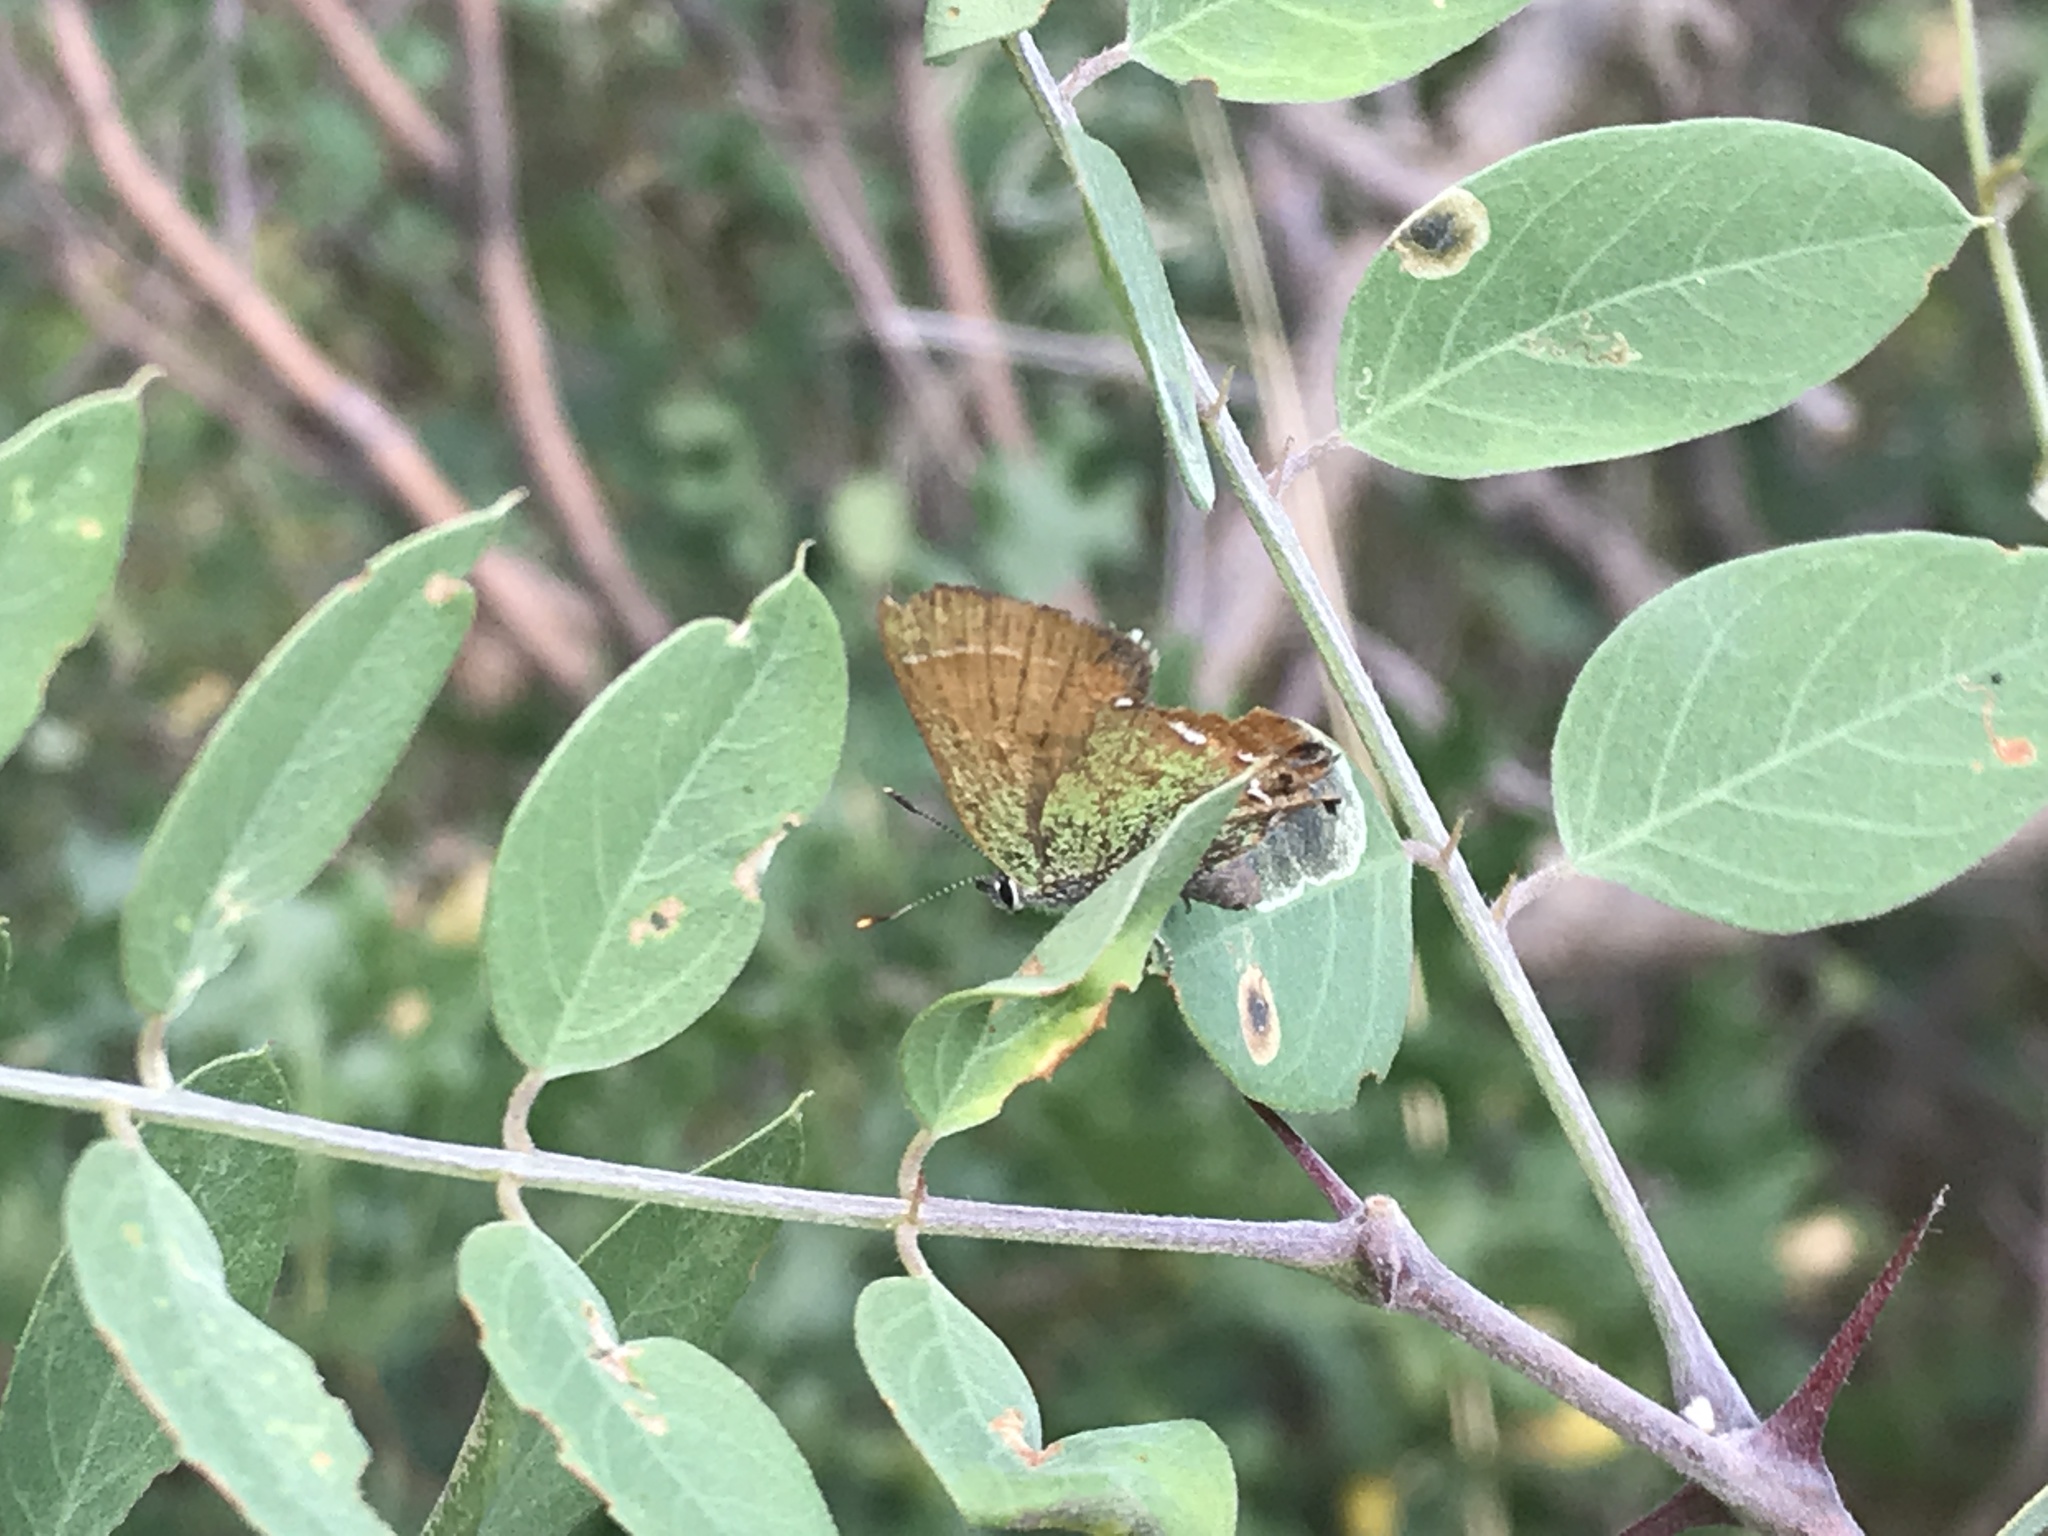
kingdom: Animalia
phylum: Arthropoda
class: Insecta
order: Lepidoptera
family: Lycaenidae
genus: Mitoura
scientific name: Mitoura siva
